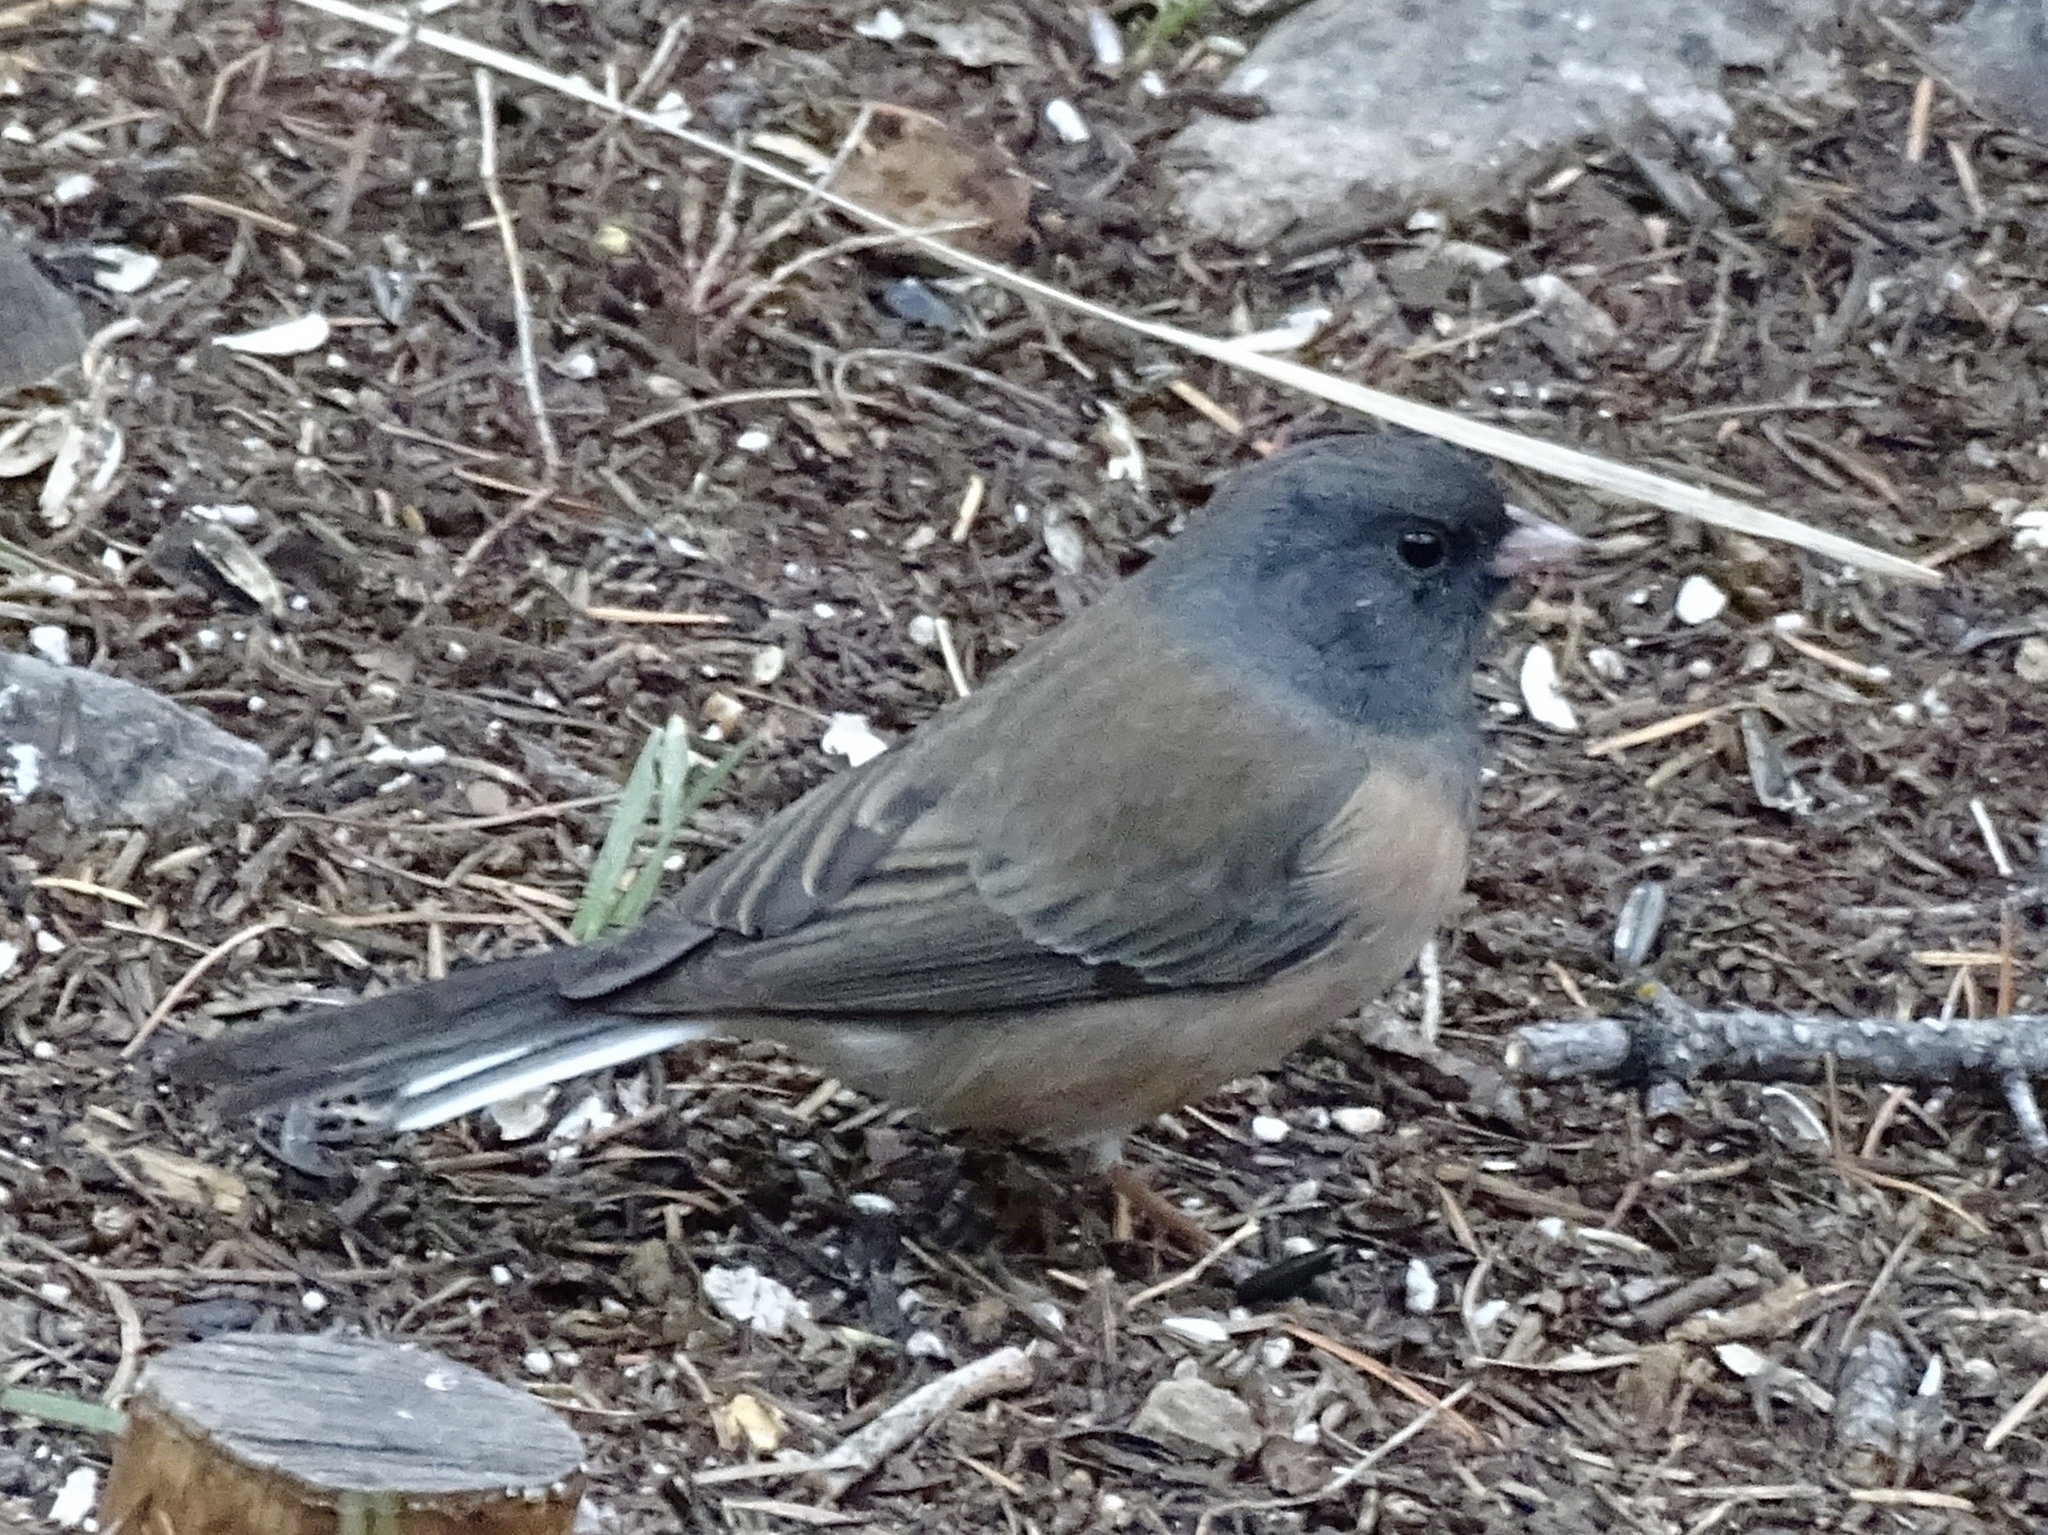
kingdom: Animalia
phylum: Chordata
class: Aves
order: Passeriformes
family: Passerellidae
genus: Junco
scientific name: Junco hyemalis
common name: Dark-eyed junco
